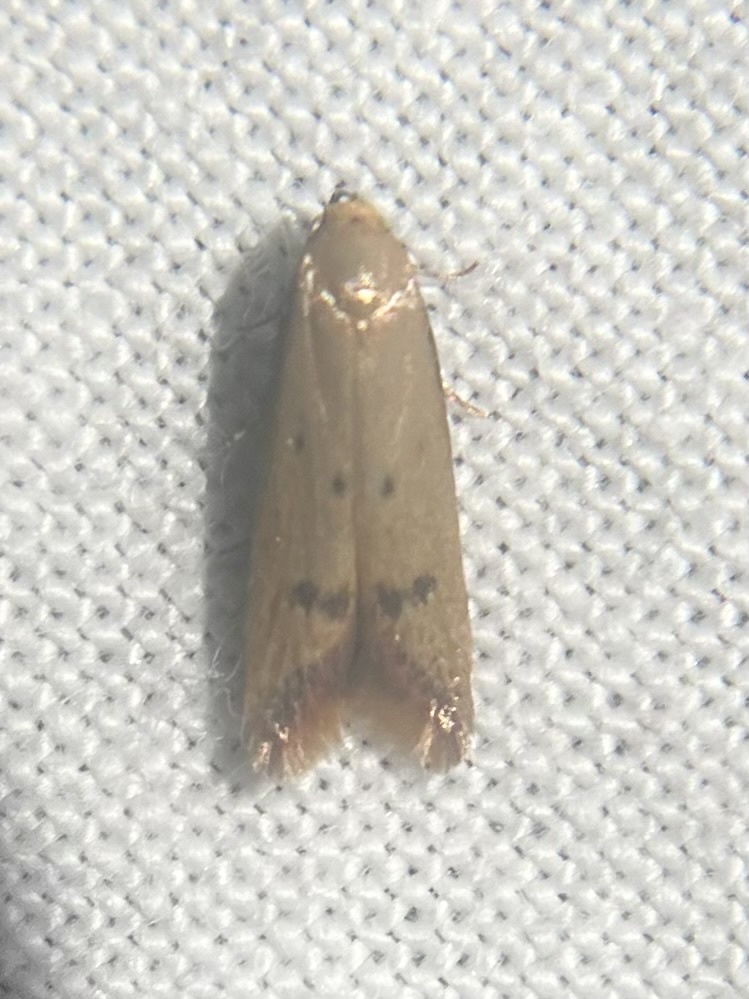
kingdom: Animalia
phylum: Arthropoda
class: Insecta
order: Lepidoptera
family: Oecophoridae
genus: Tachystola
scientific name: Tachystola hemisema
